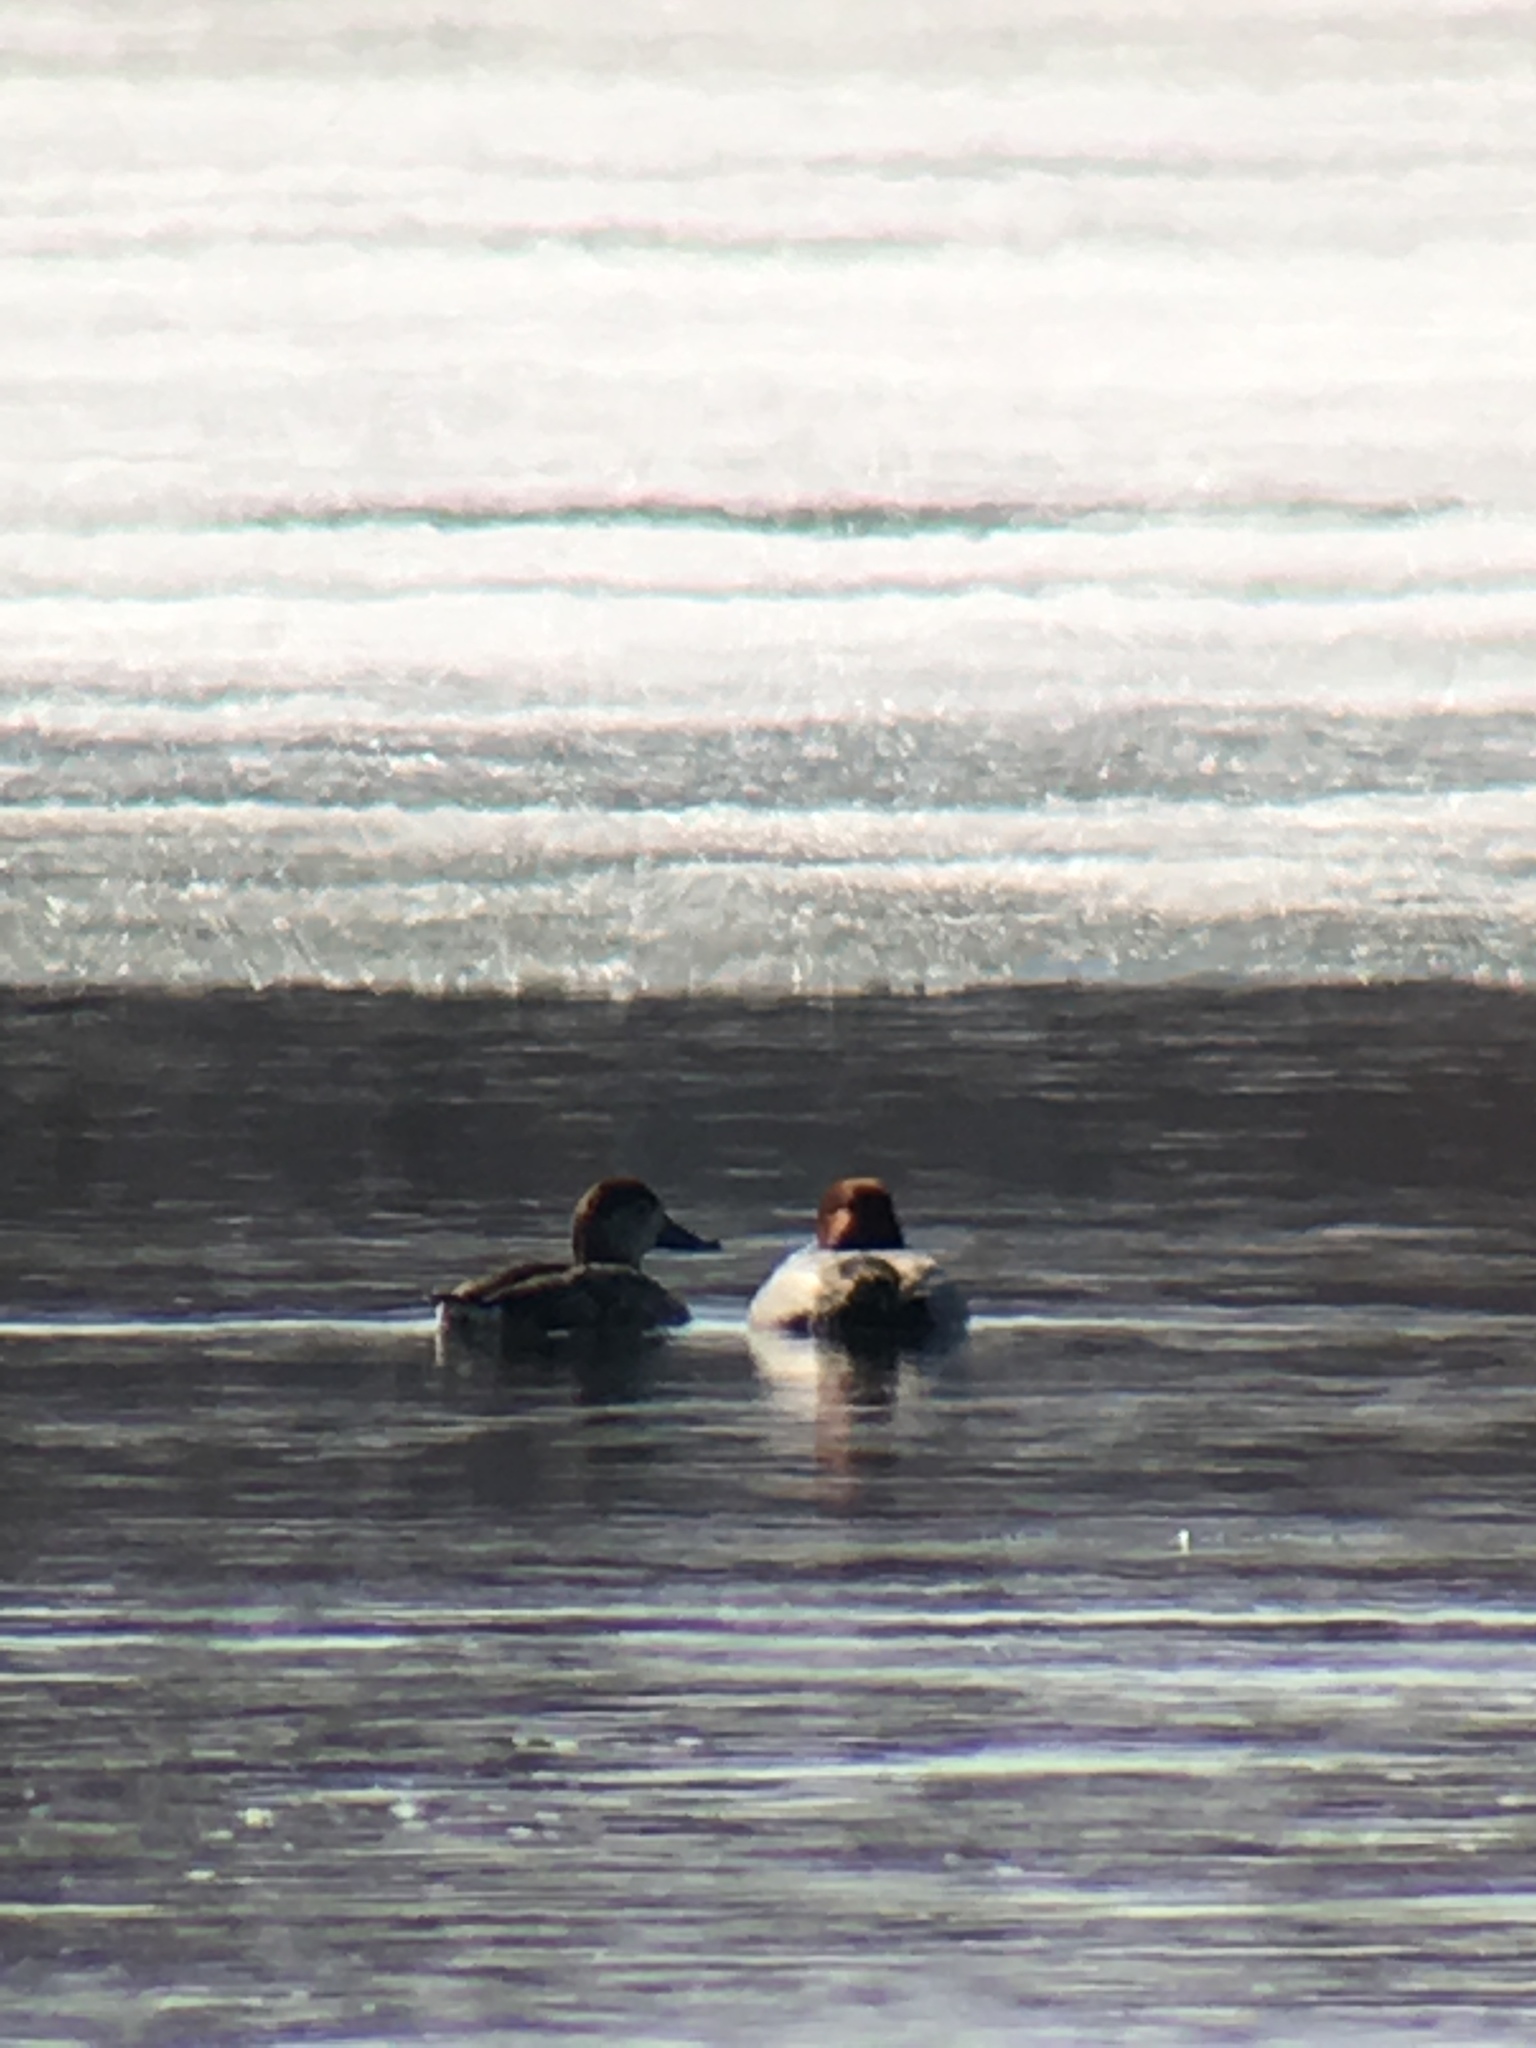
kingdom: Animalia
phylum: Chordata
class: Aves
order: Anseriformes
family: Anatidae
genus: Aythya
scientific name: Aythya americana
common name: Redhead
